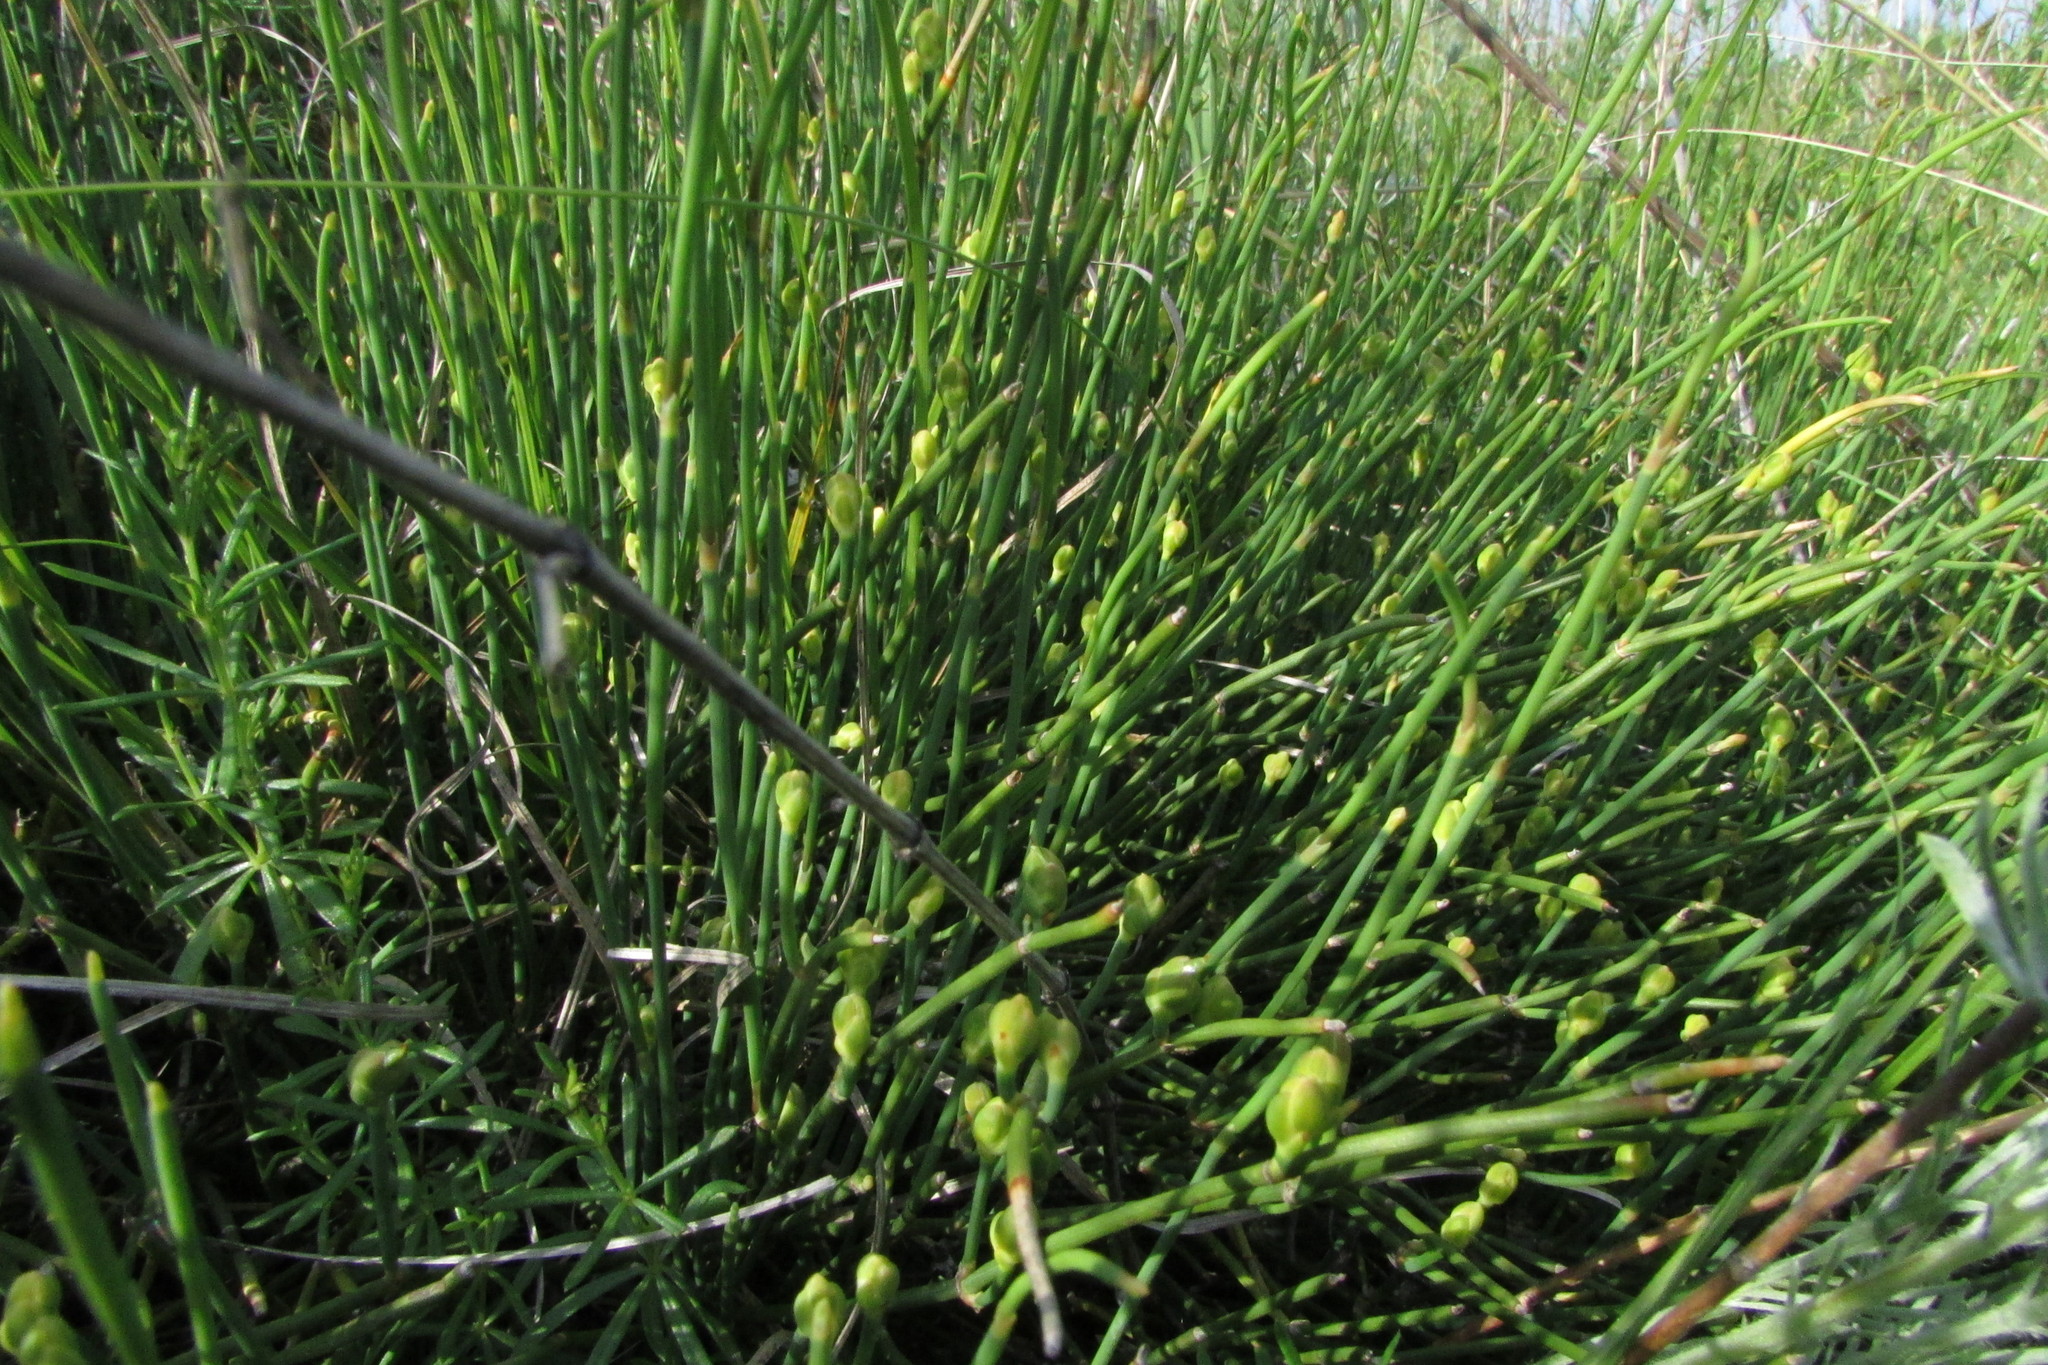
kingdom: Plantae
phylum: Tracheophyta
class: Gnetopsida
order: Ephedrales
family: Ephedraceae
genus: Ephedra
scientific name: Ephedra distachya
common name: Sea grape
